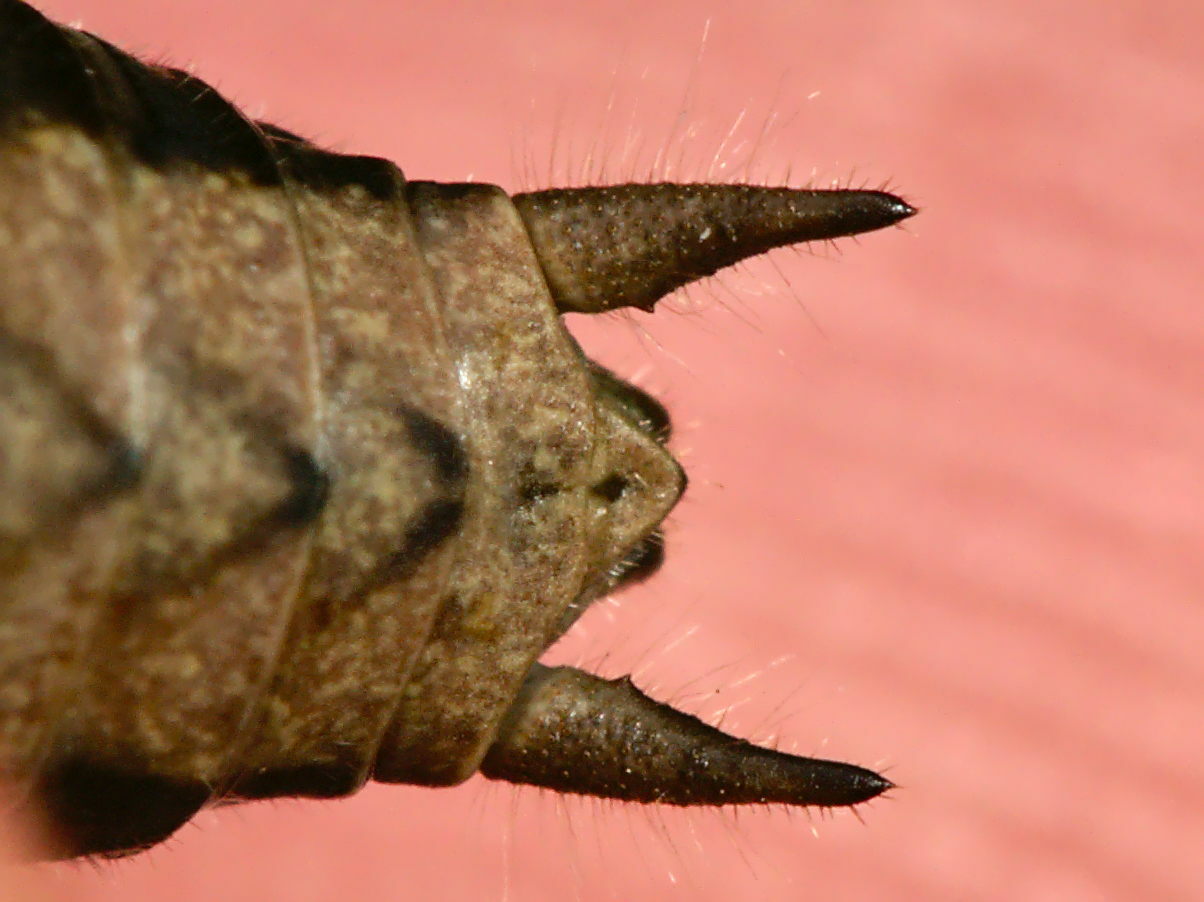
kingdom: Animalia
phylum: Arthropoda
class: Insecta
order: Orthoptera
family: Tettigoniidae
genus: Pholidoptera
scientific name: Pholidoptera griseoaptera
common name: Dark bush-cricket
